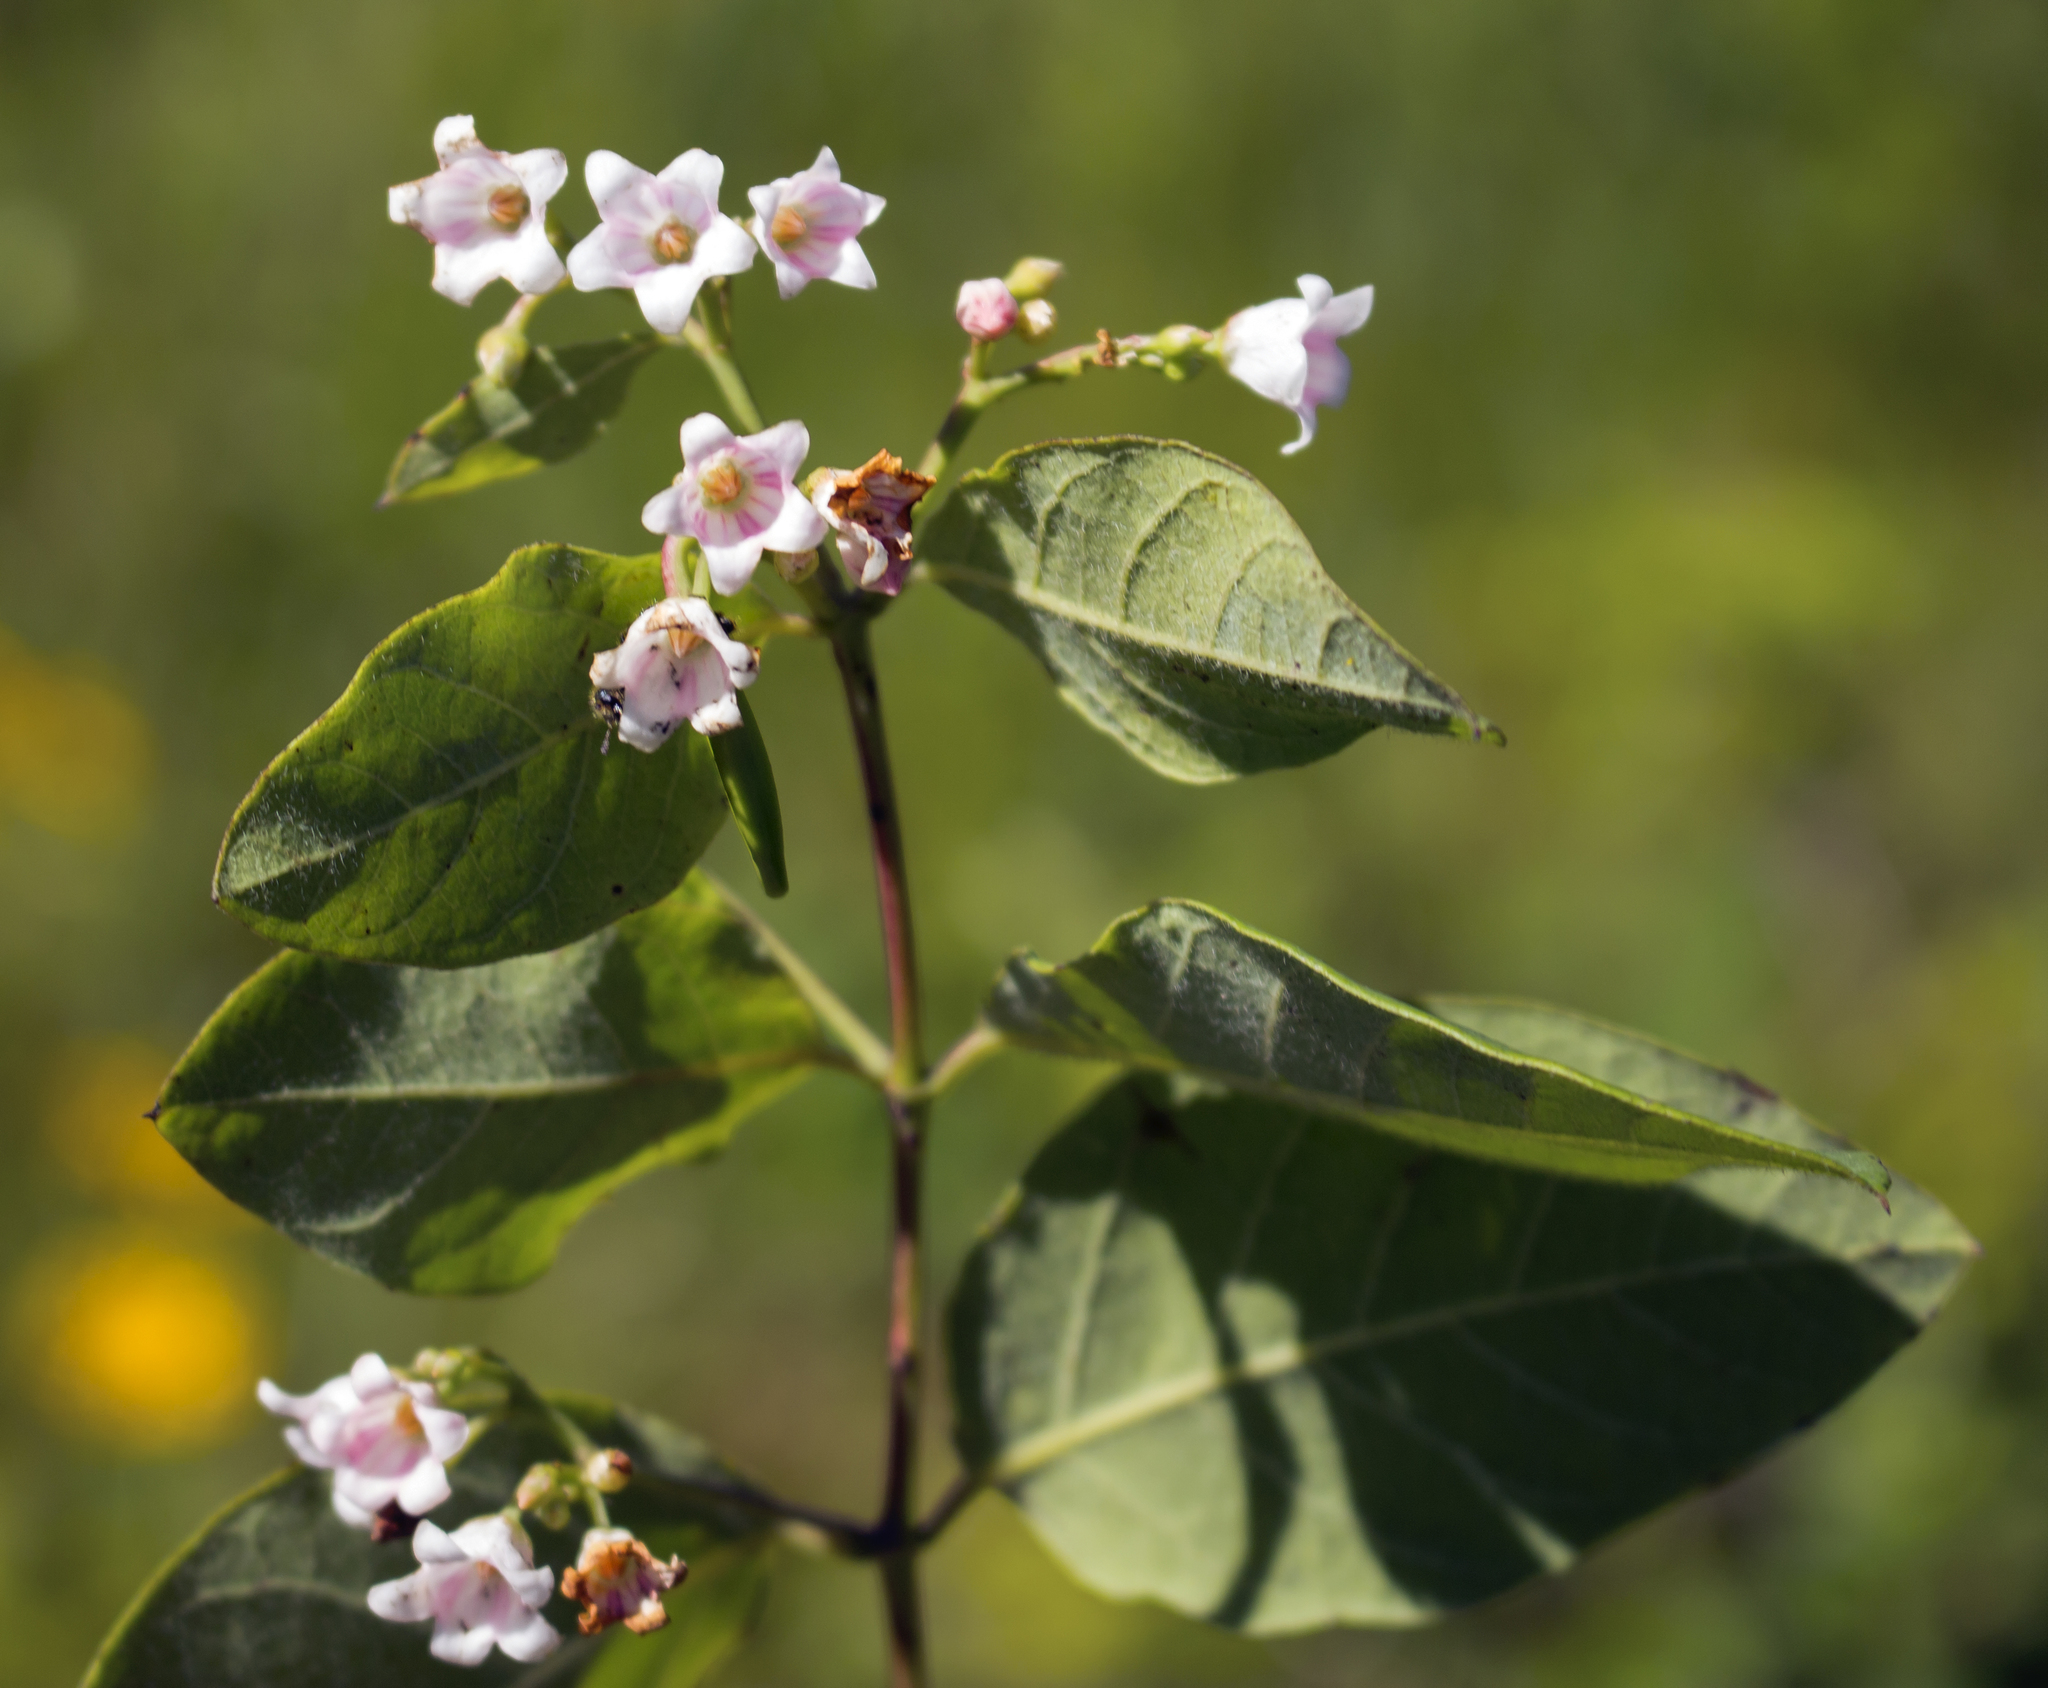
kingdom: Plantae
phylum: Tracheophyta
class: Magnoliopsida
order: Gentianales
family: Apocynaceae
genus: Apocynum
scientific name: Apocynum androsaemifolium
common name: Spreading dogbane
